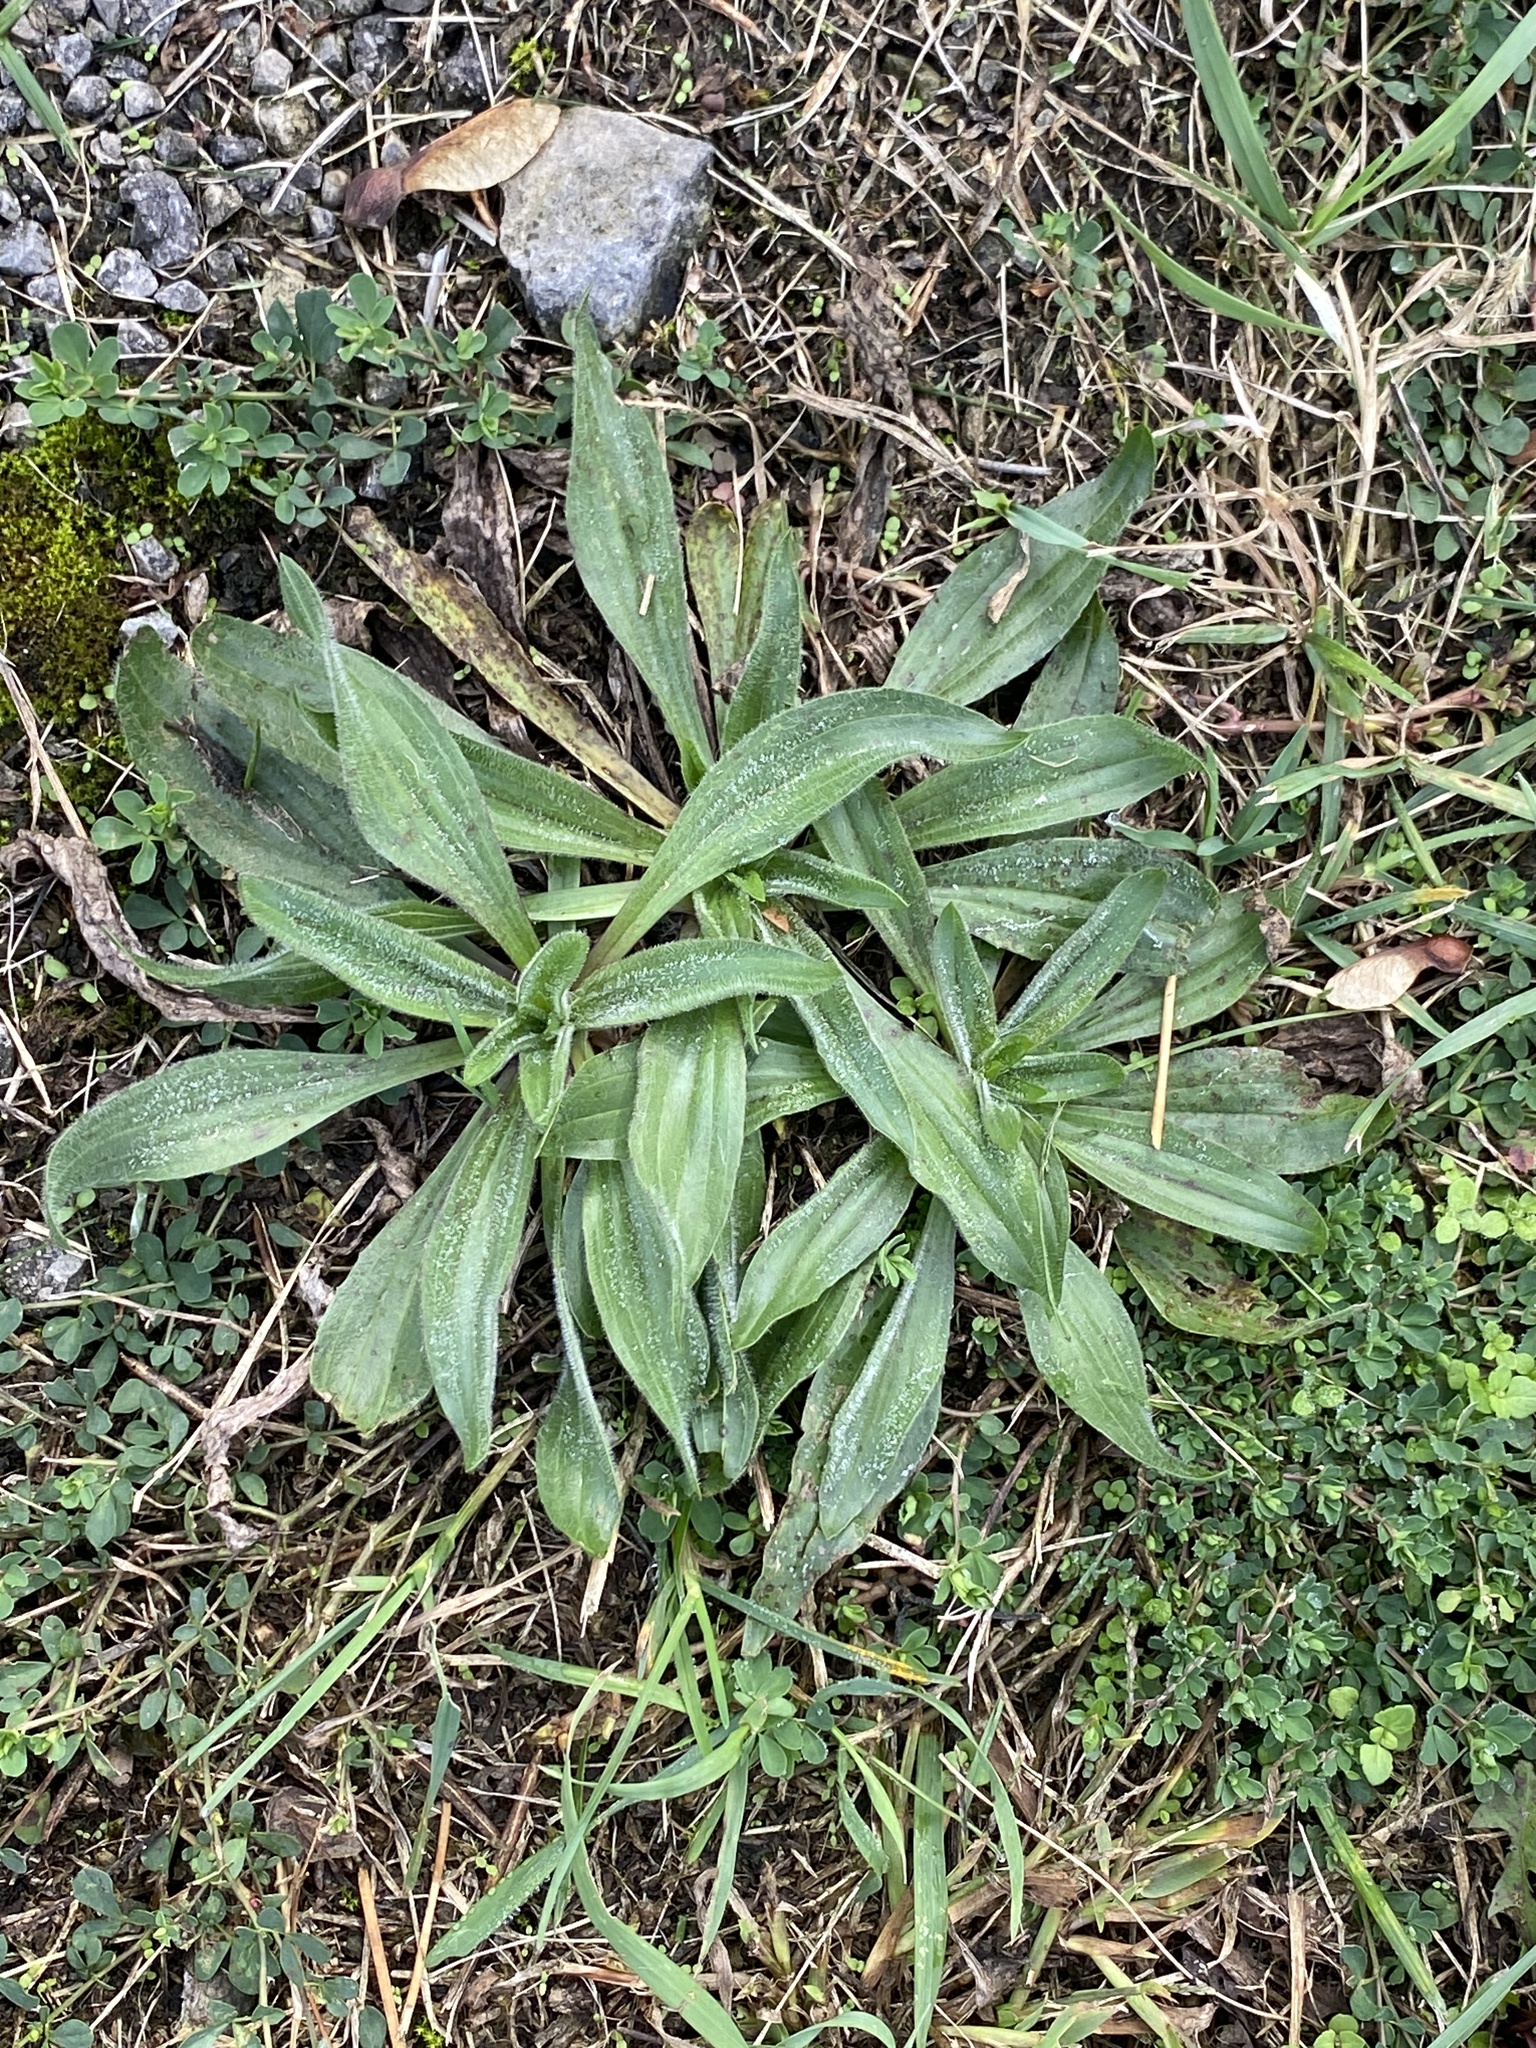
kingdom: Plantae
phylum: Tracheophyta
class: Magnoliopsida
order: Lamiales
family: Plantaginaceae
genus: Plantago
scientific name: Plantago lanceolata
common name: Ribwort plantain
